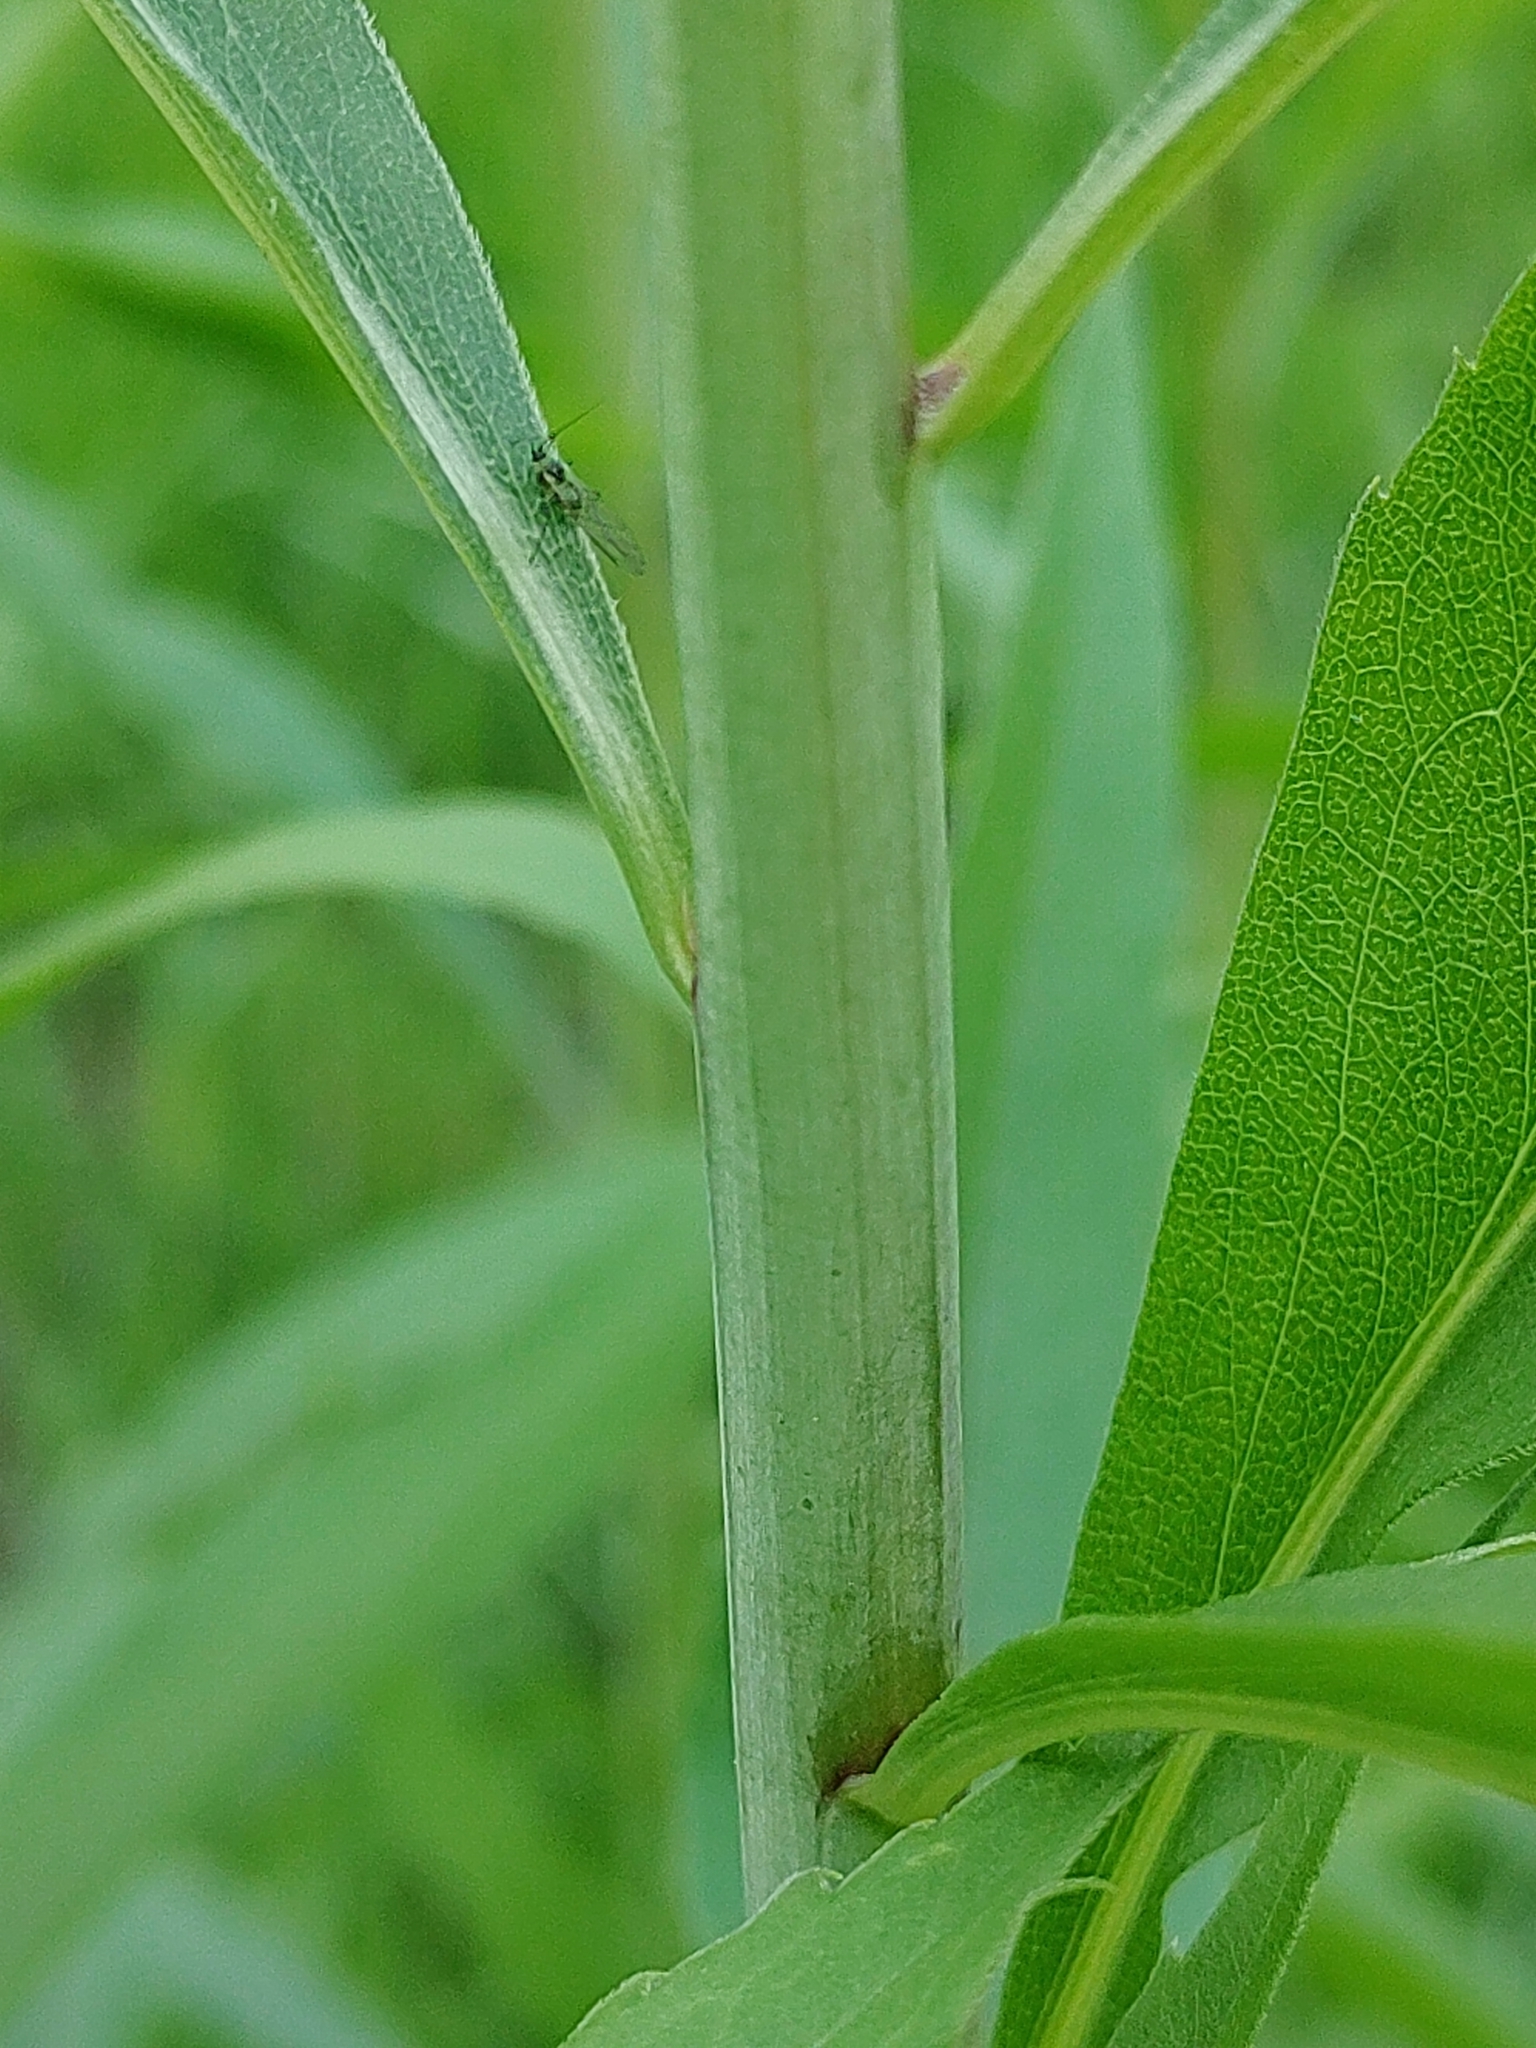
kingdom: Plantae
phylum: Tracheophyta
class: Magnoliopsida
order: Asterales
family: Asteraceae
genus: Solidago
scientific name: Solidago gigantea
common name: Giant goldenrod
